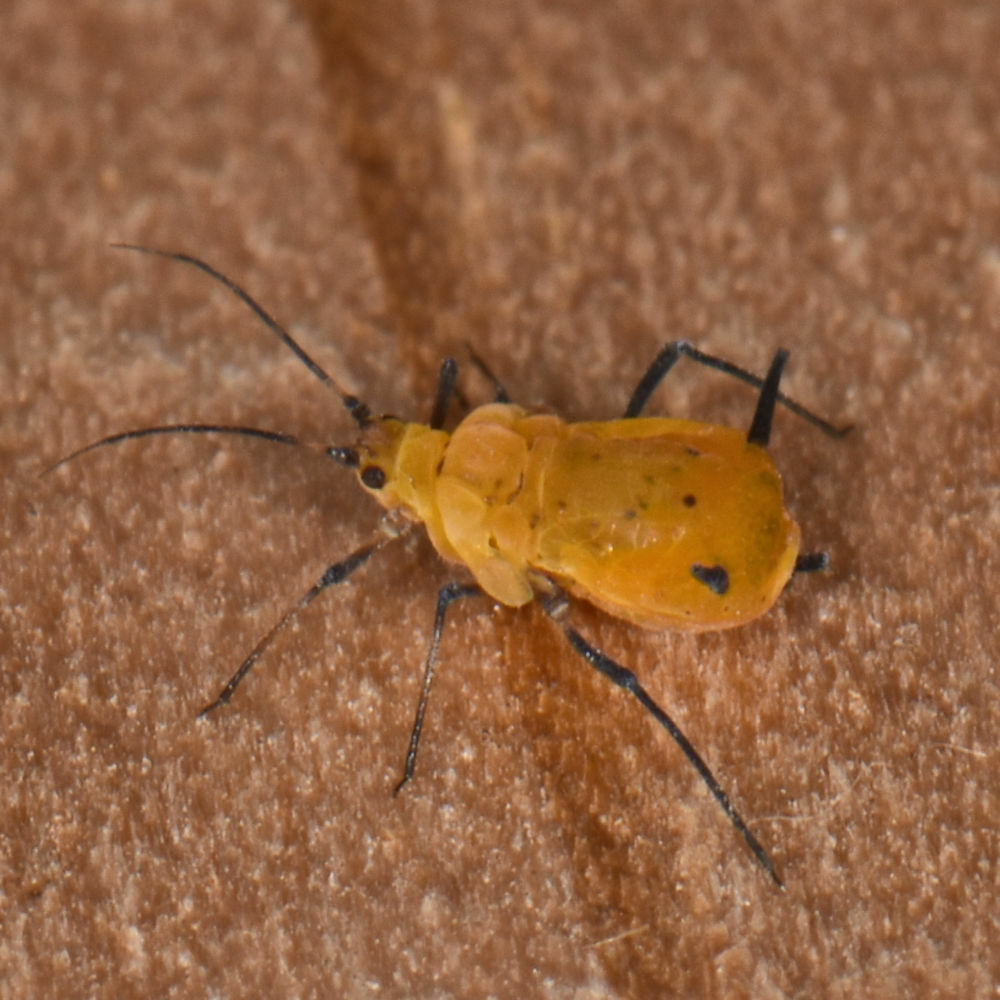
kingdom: Animalia
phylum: Arthropoda
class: Insecta
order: Hemiptera
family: Aphididae
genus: Aphis
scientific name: Aphis nerii
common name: Oleander aphid
